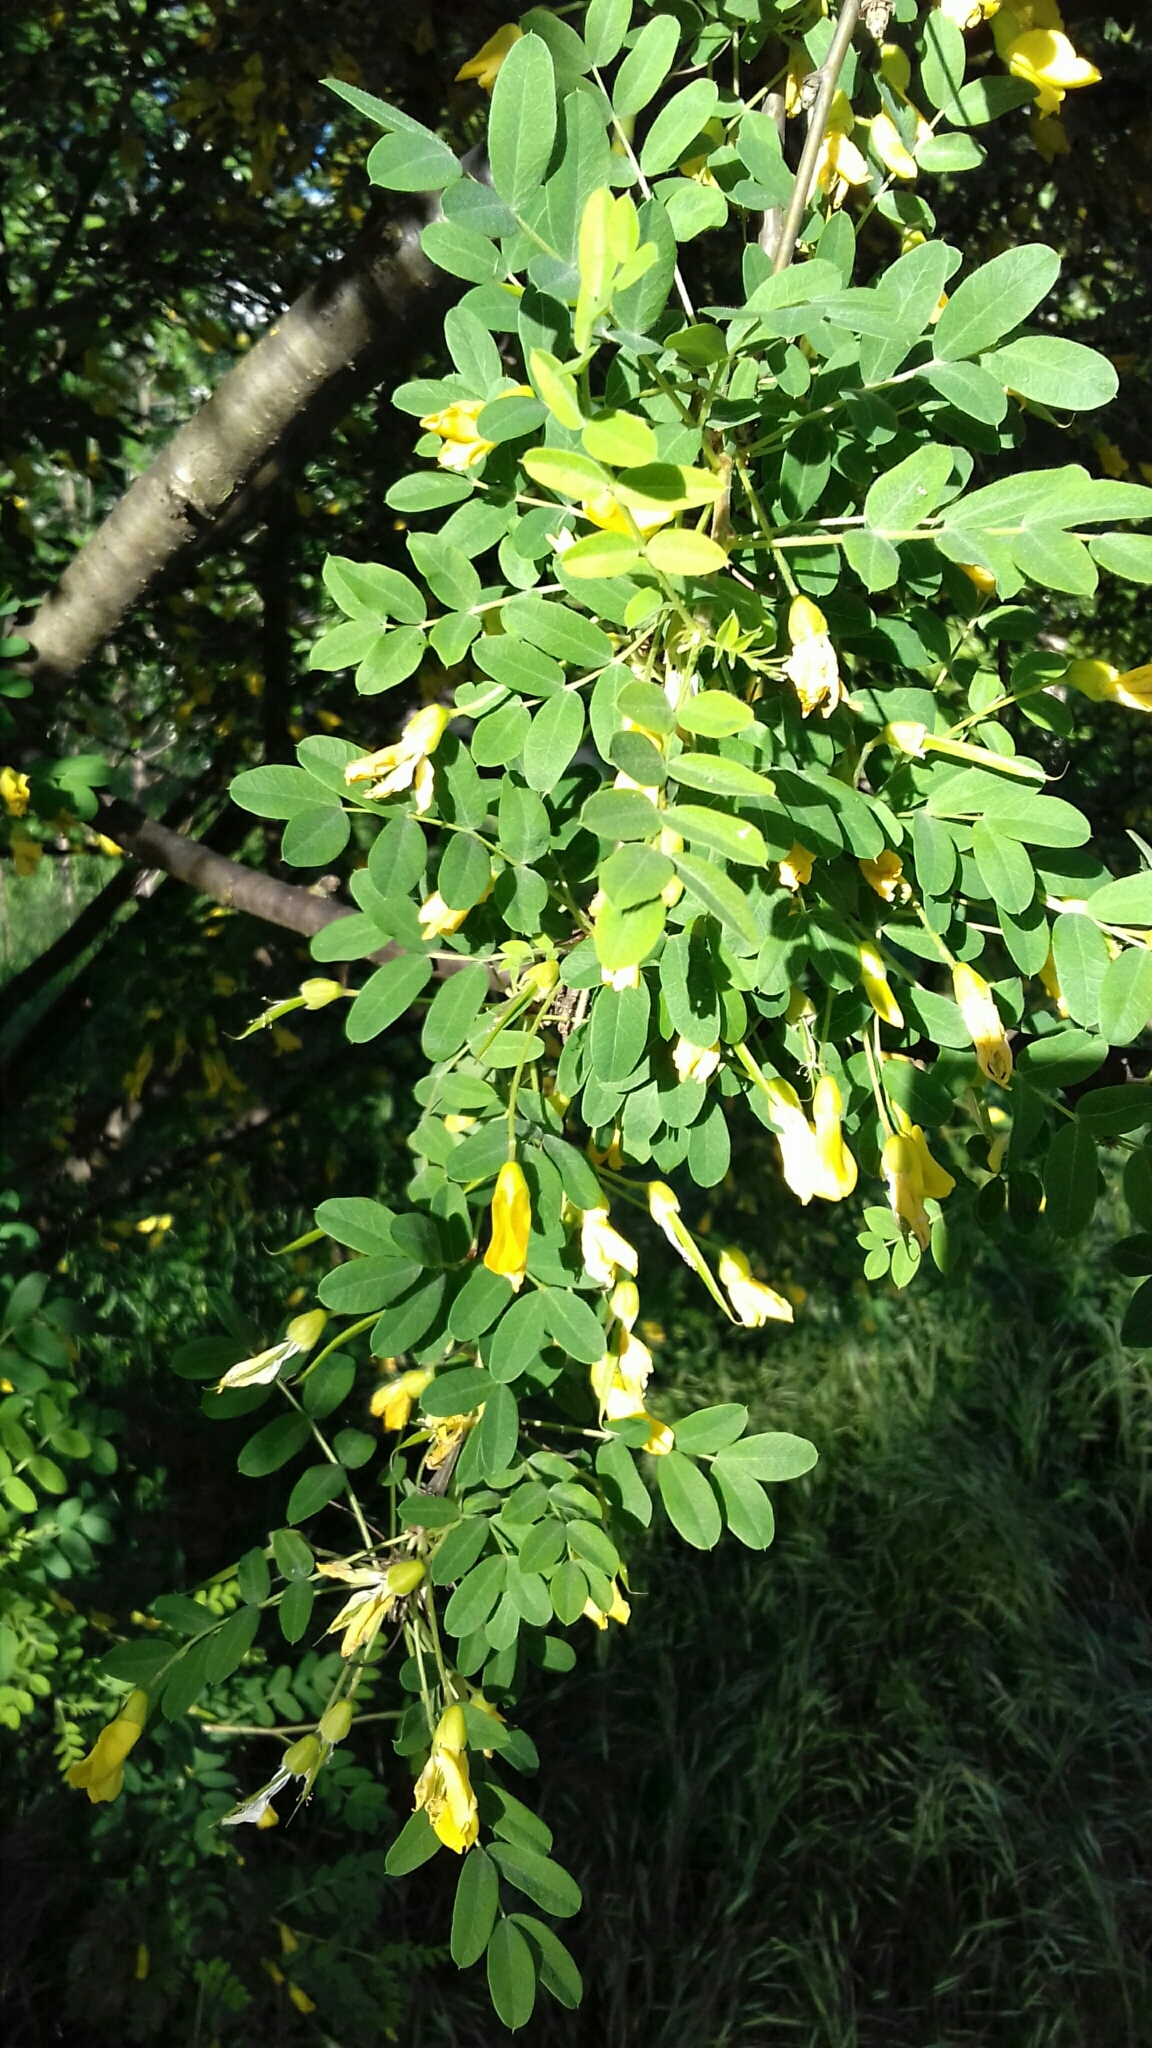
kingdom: Plantae
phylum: Tracheophyta
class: Magnoliopsida
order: Fabales
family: Fabaceae
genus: Caragana
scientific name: Caragana arborescens
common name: Siberian peashrub
